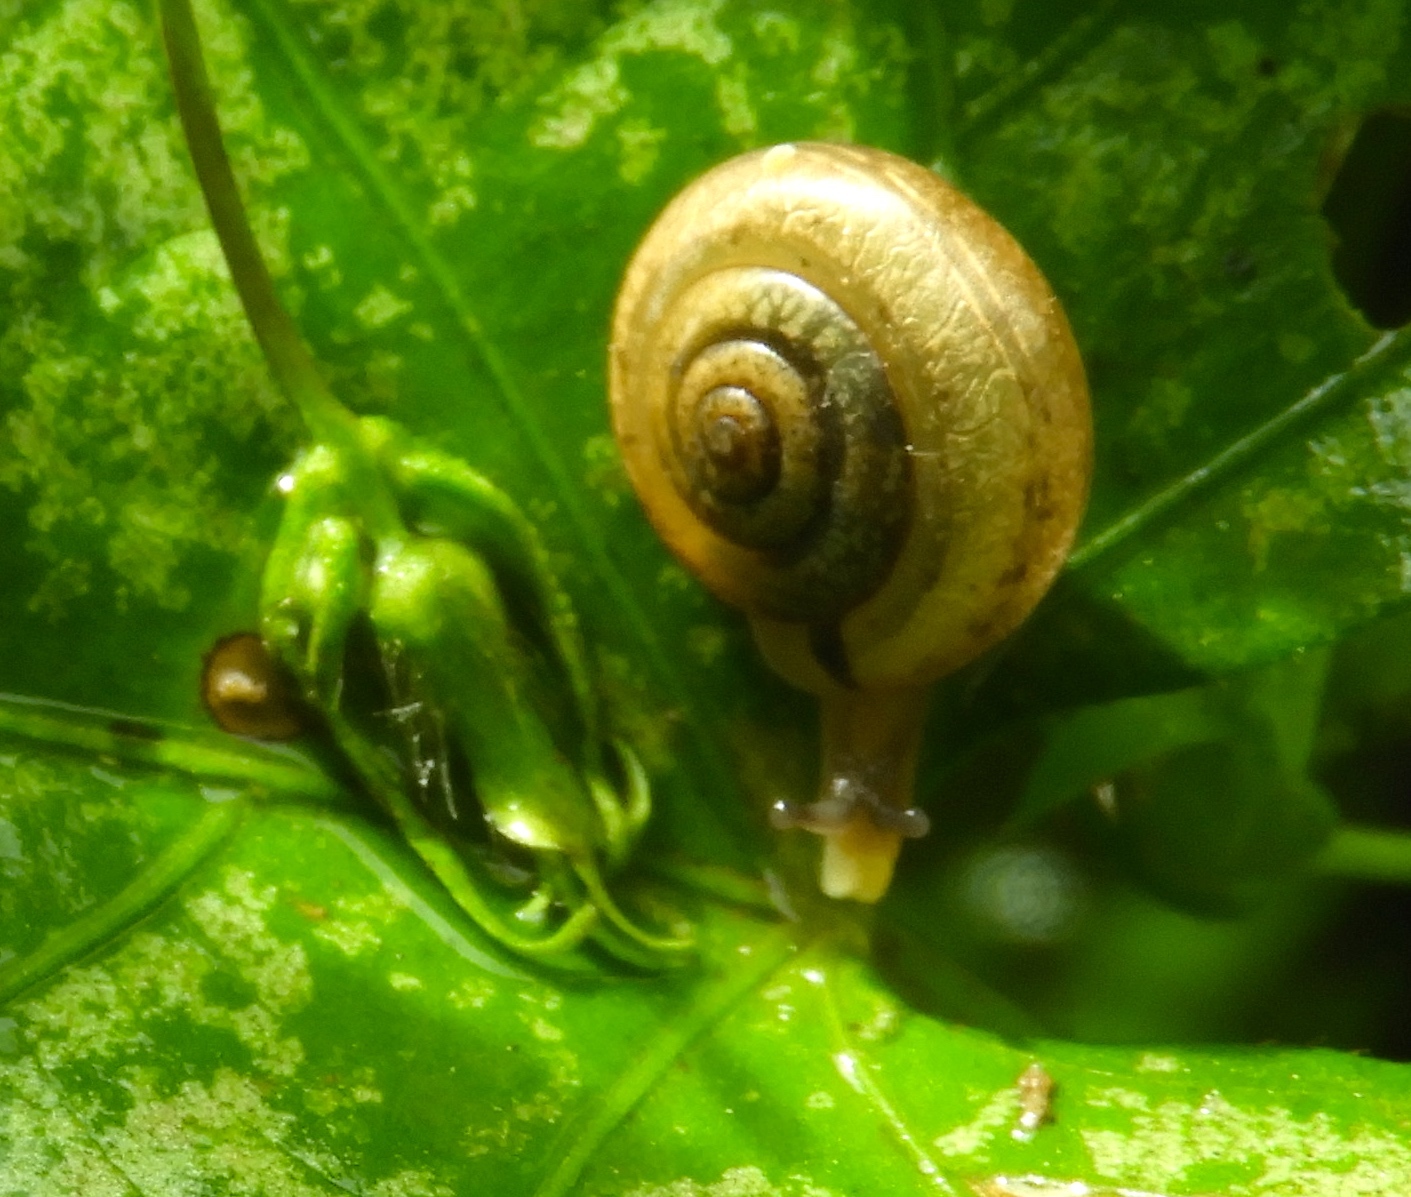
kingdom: Animalia
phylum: Mollusca
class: Gastropoda
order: Stylommatophora
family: Polygyridae
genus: Linisa
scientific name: Linisa
